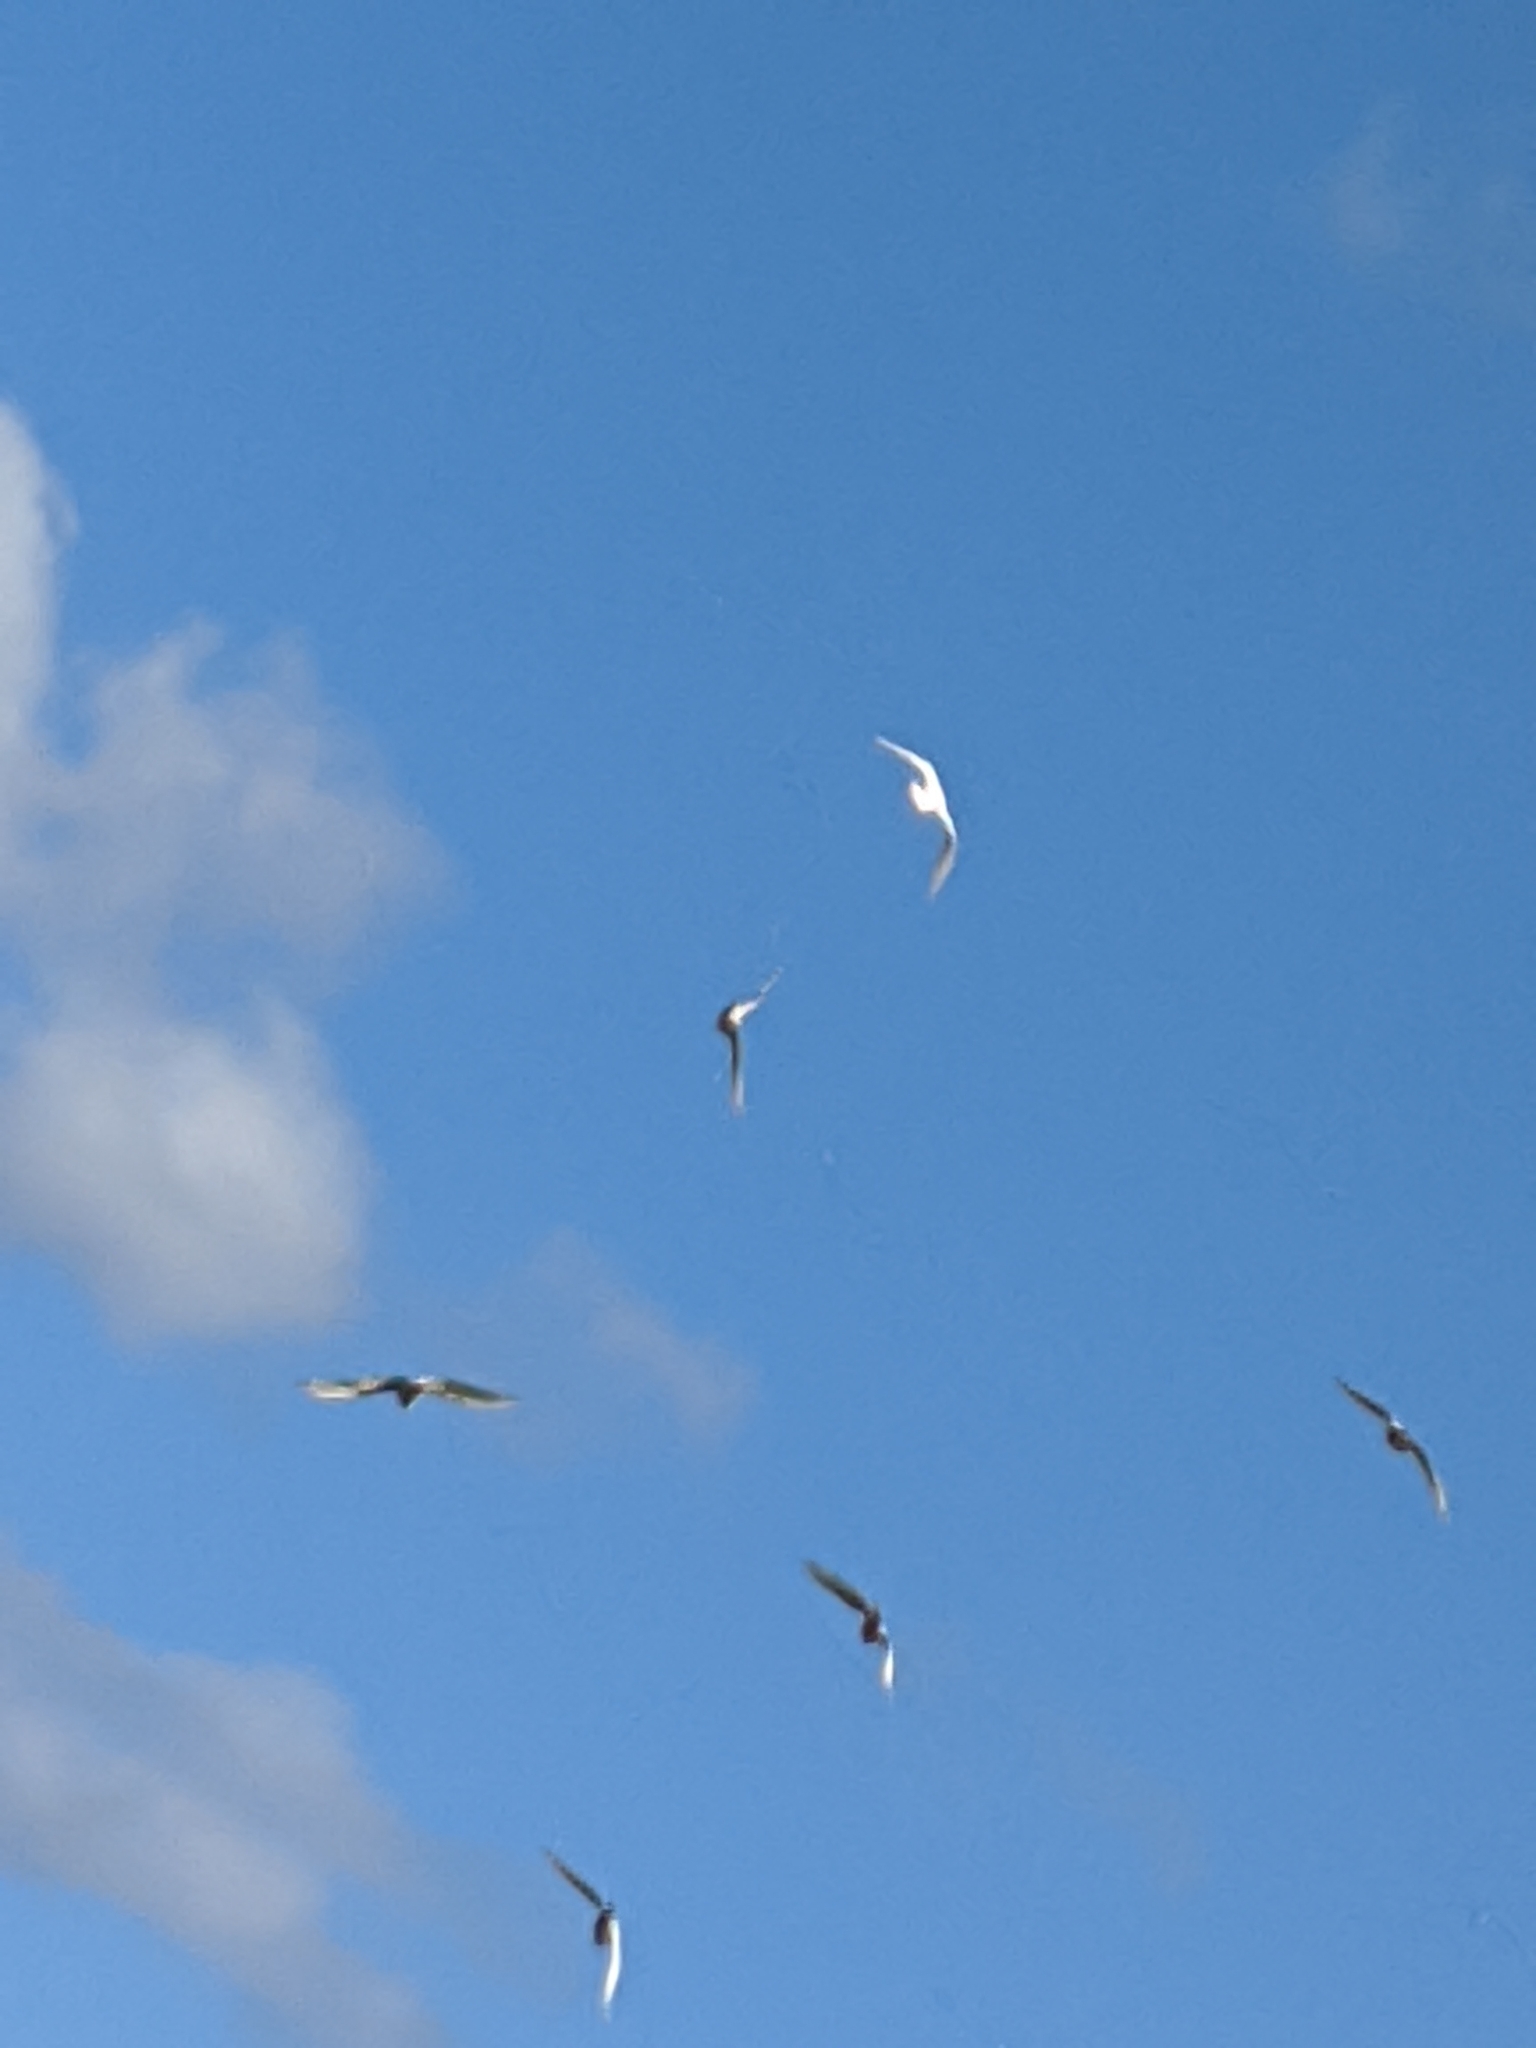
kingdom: Animalia
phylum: Chordata
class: Aves
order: Psittaciformes
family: Psittacidae
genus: Cacatua
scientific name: Cacatua sanguinea
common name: Little corella
